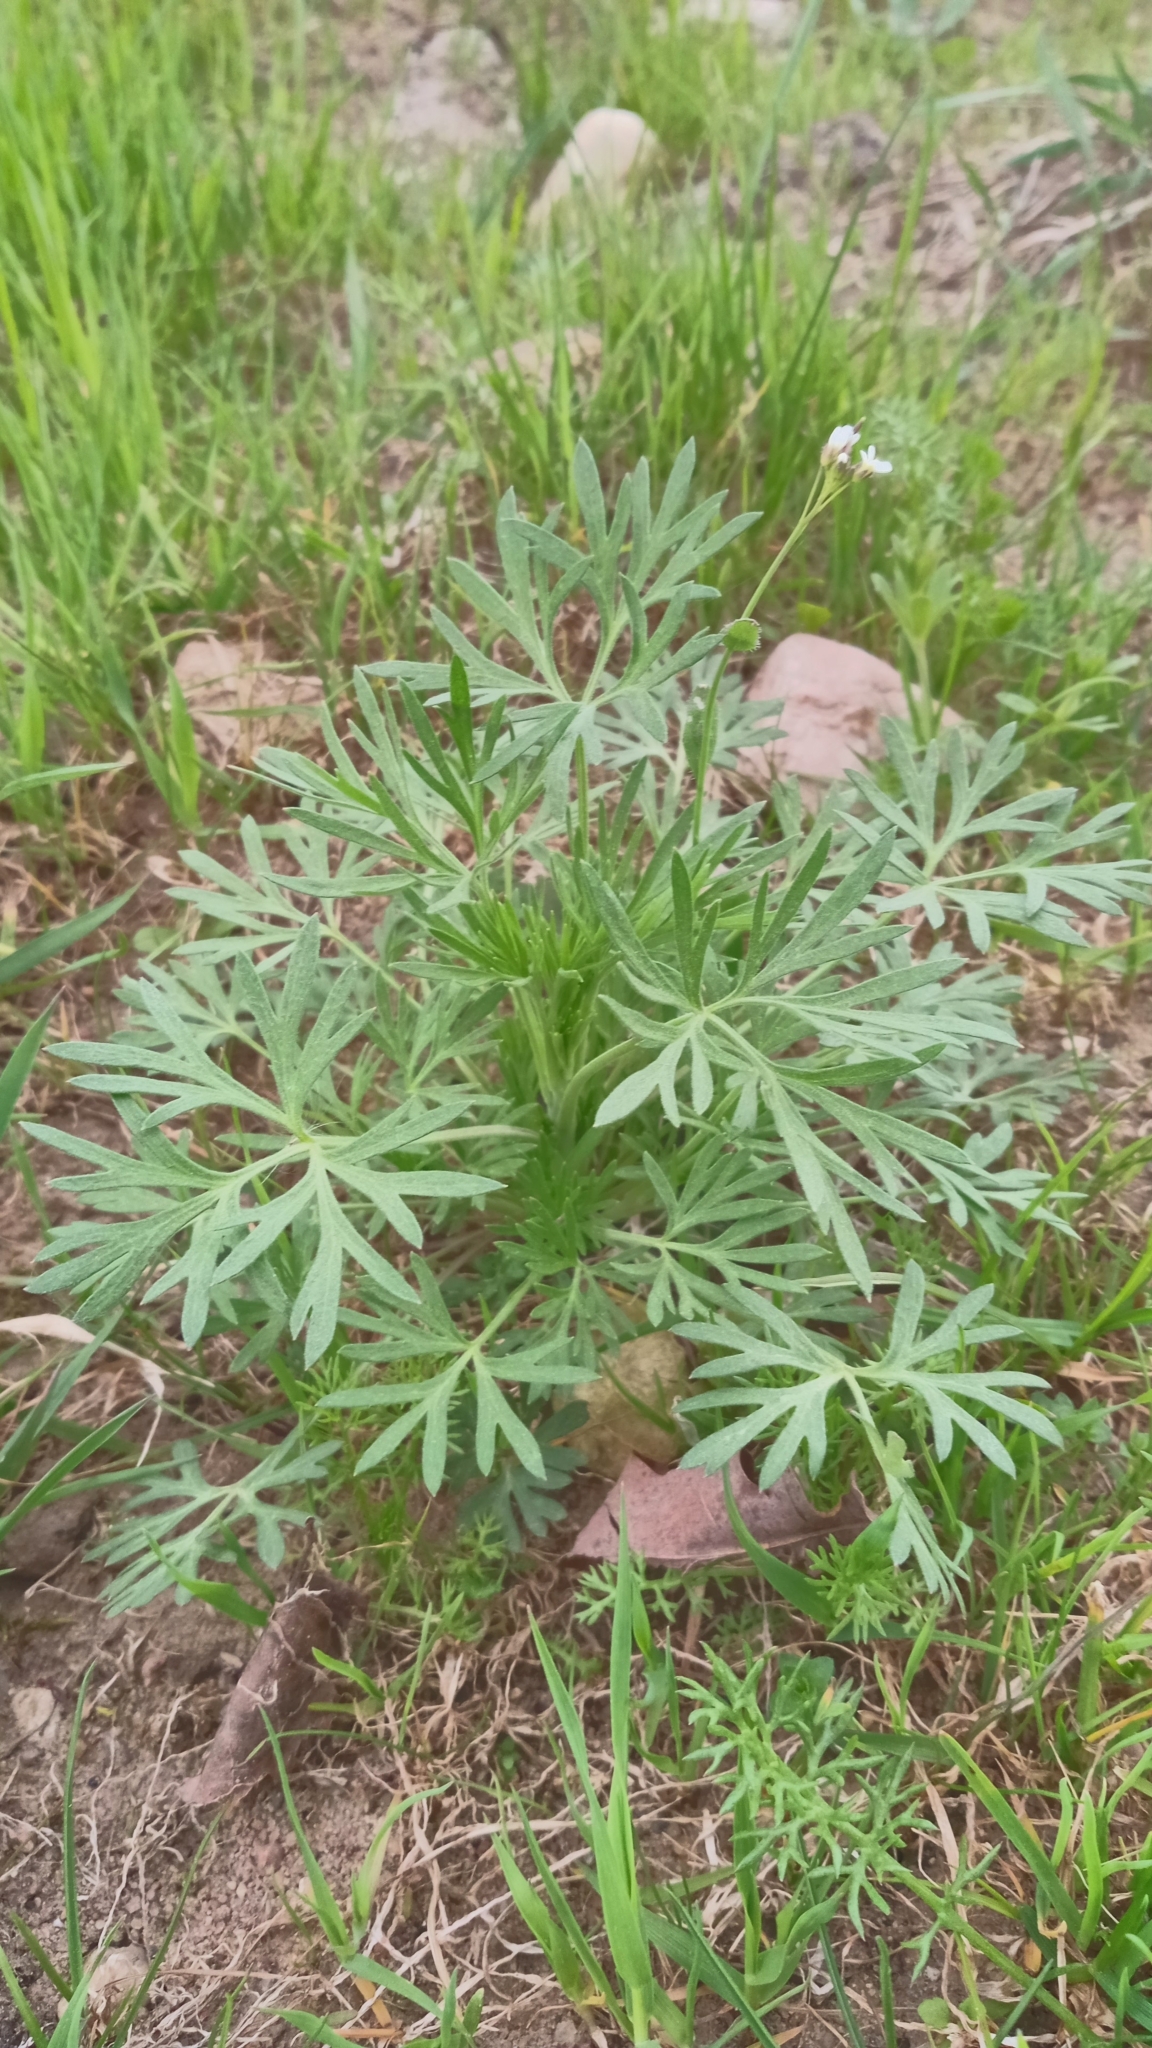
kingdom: Plantae
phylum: Tracheophyta
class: Magnoliopsida
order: Asterales
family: Asteraceae
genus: Artemisia
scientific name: Artemisia absinthium
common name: Wormwood
